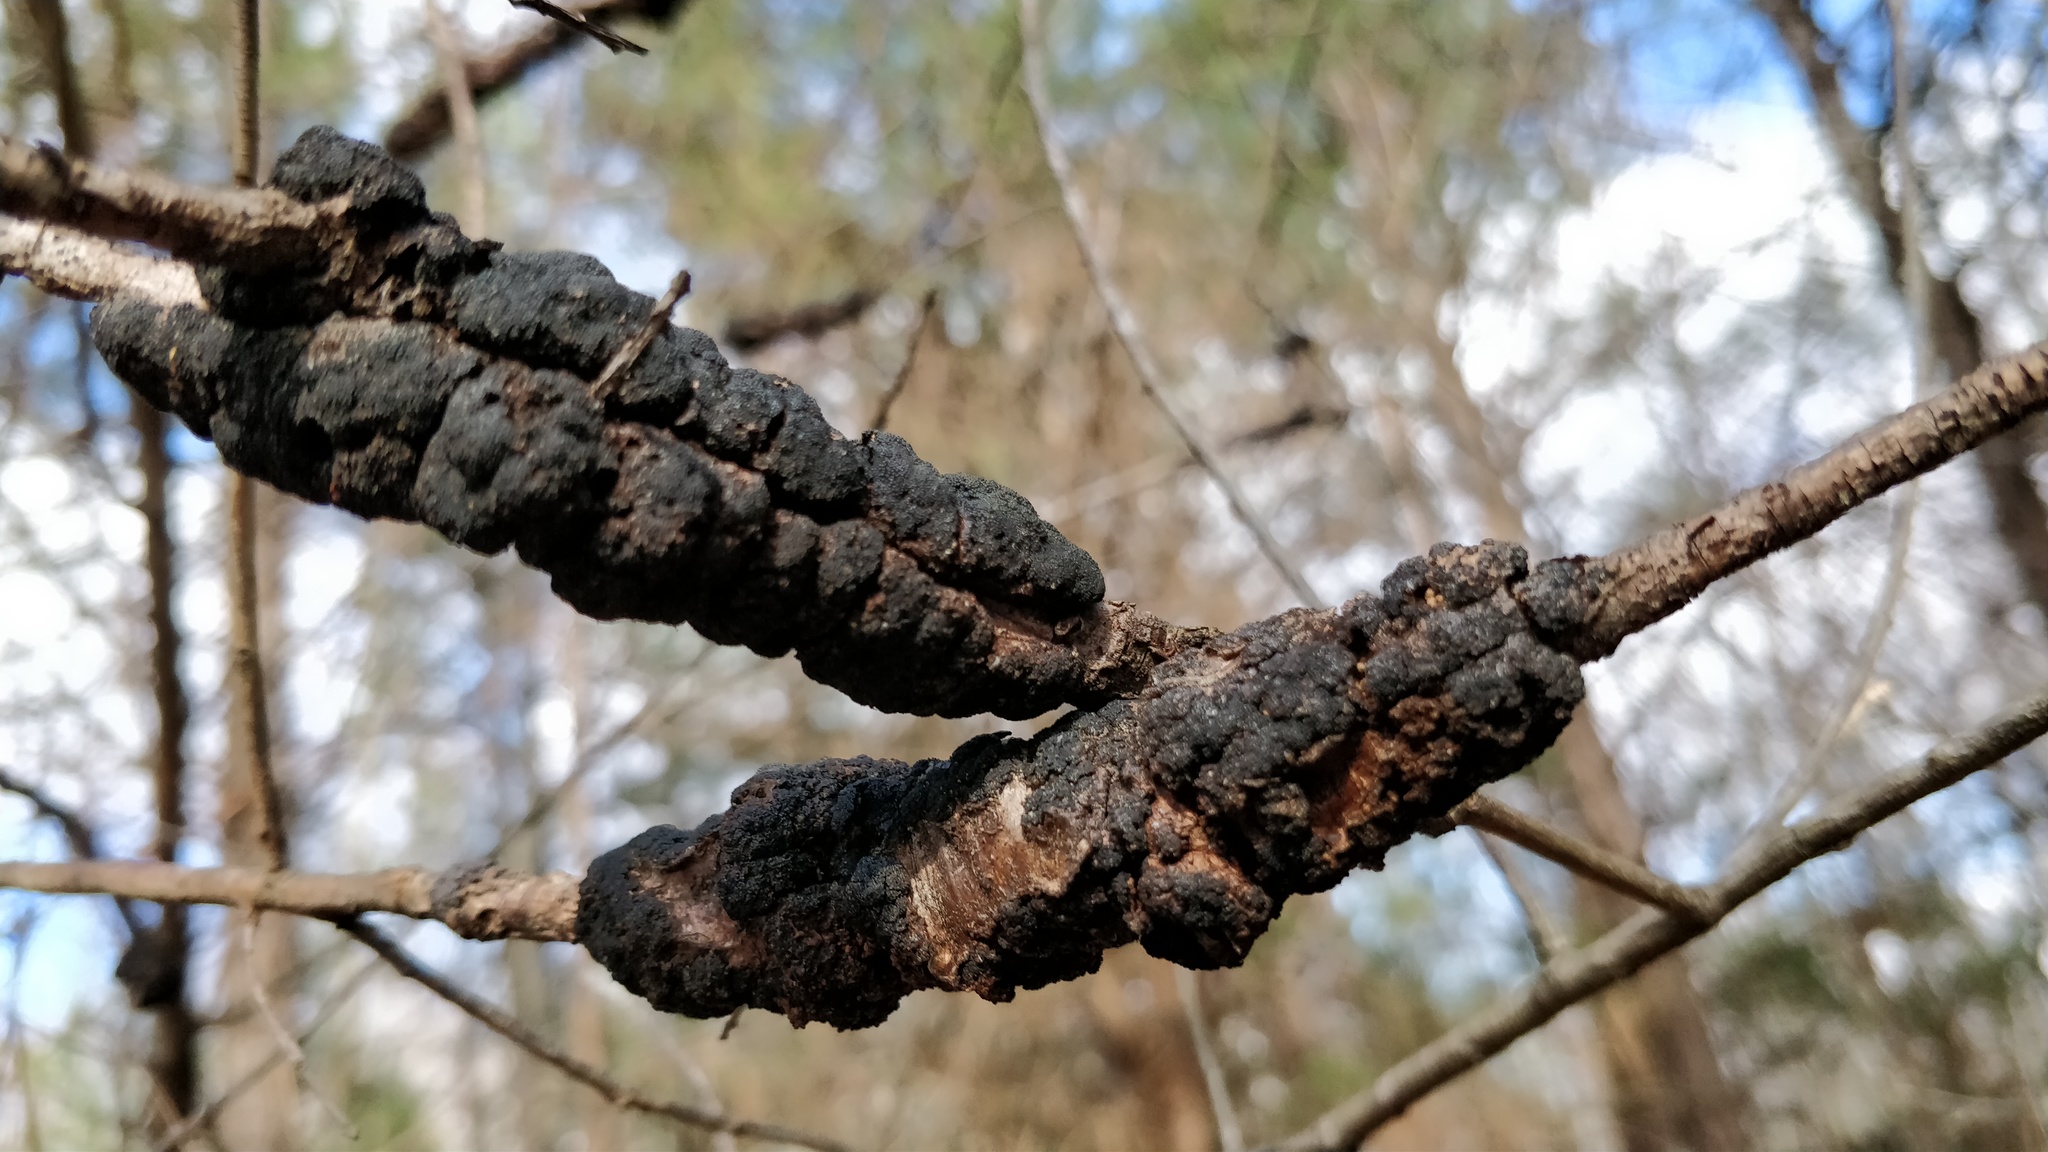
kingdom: Fungi
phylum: Ascomycota
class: Dothideomycetes
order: Venturiales
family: Venturiaceae
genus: Apiosporina
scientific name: Apiosporina morbosa
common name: Black knot
